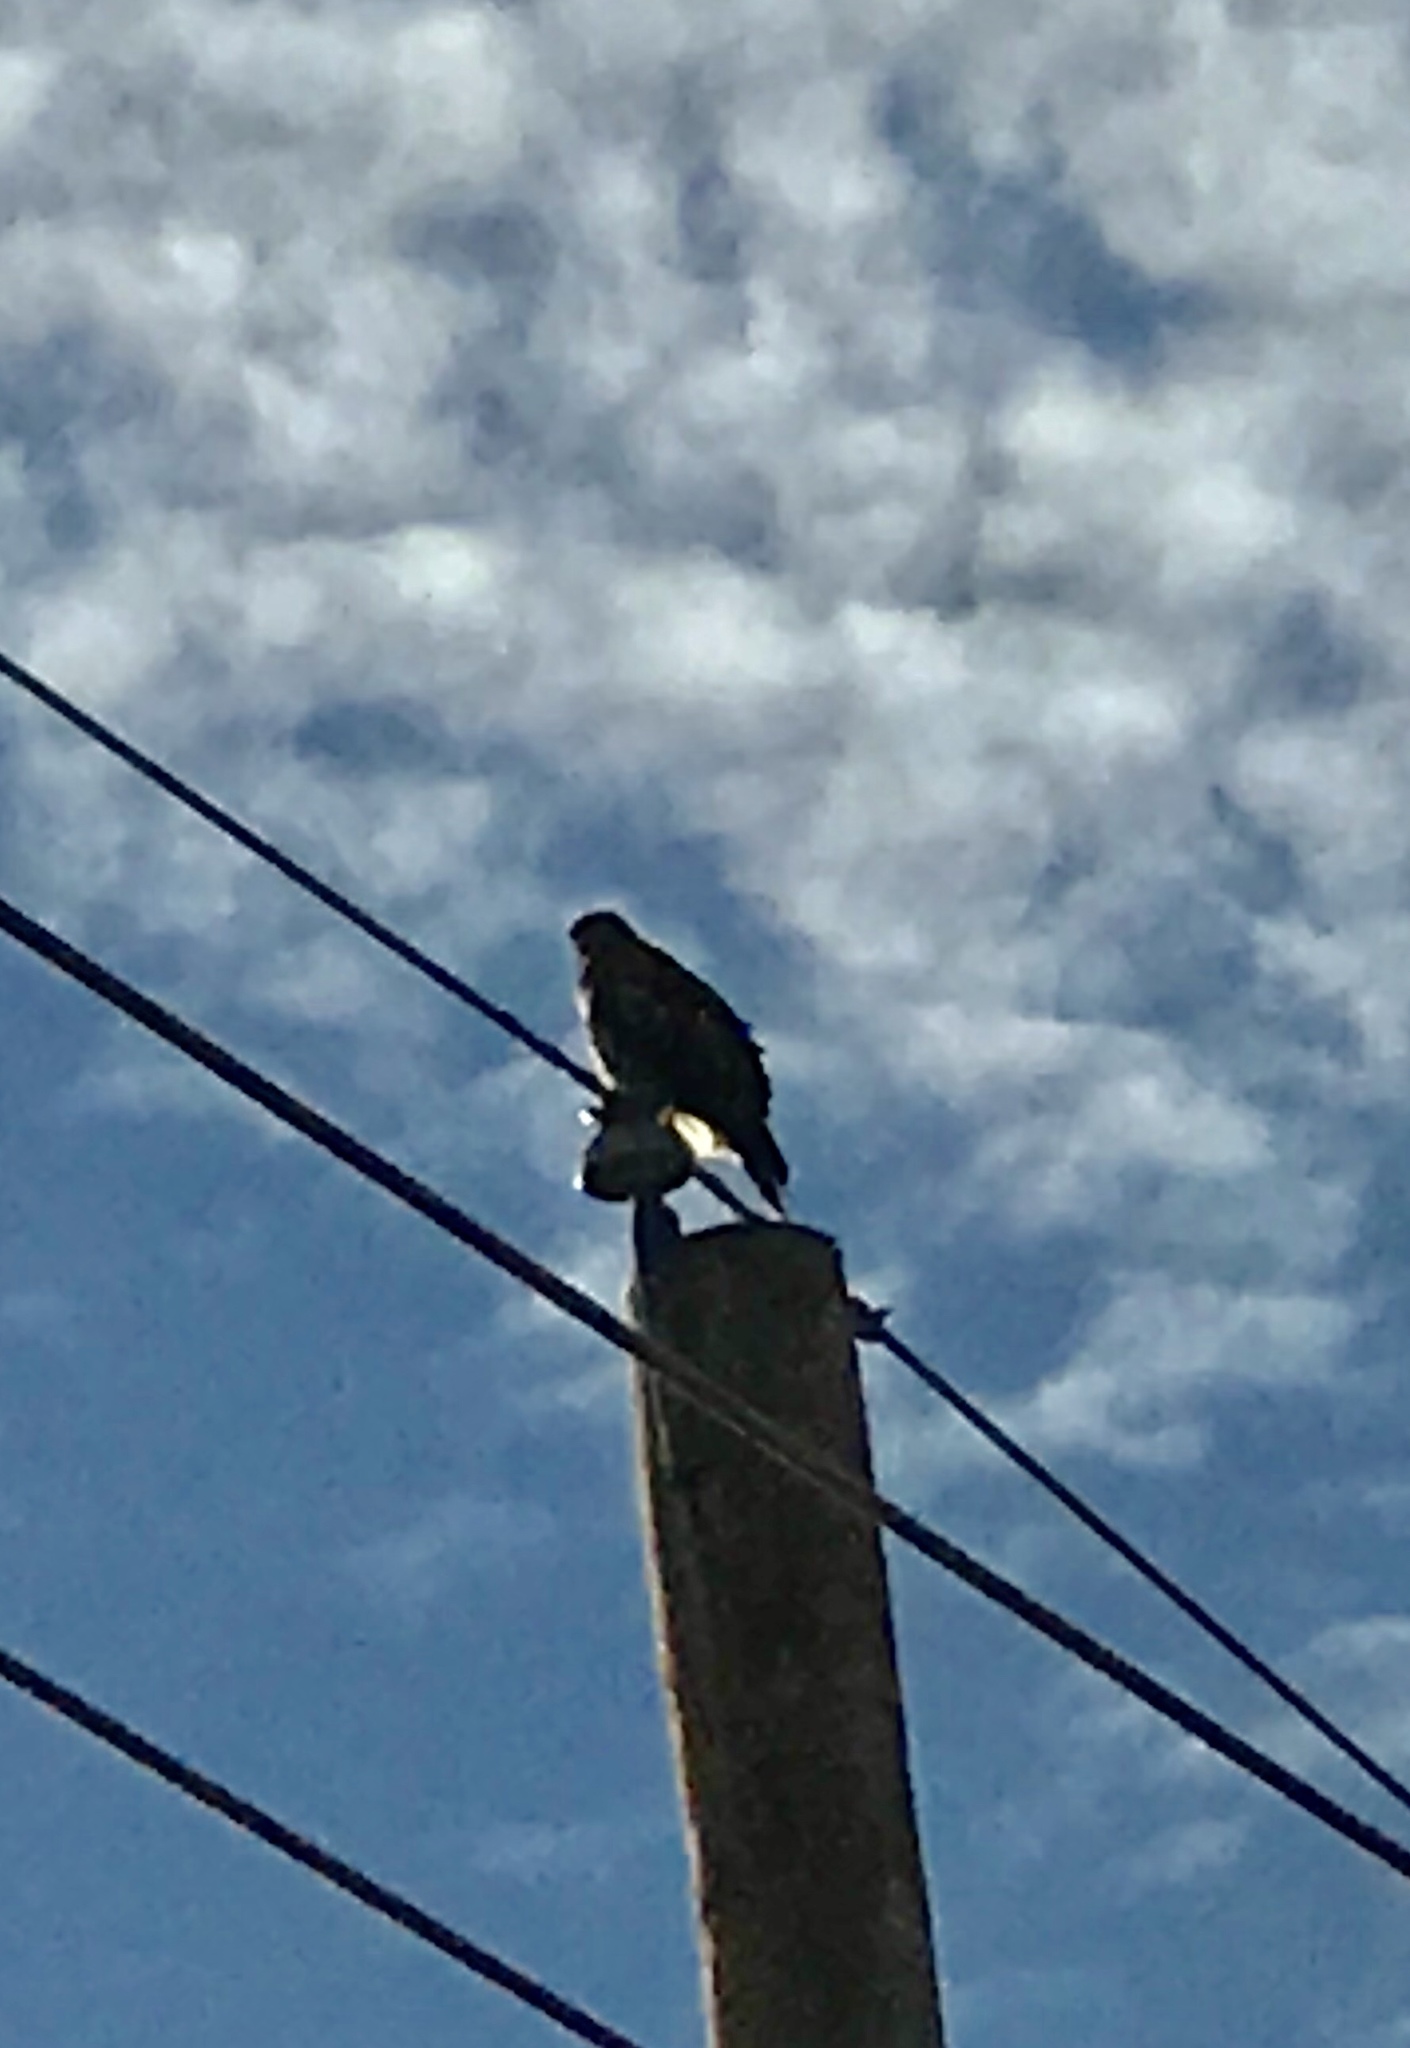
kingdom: Animalia
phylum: Chordata
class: Aves
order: Accipitriformes
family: Accipitridae
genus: Buteo
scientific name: Buteo
